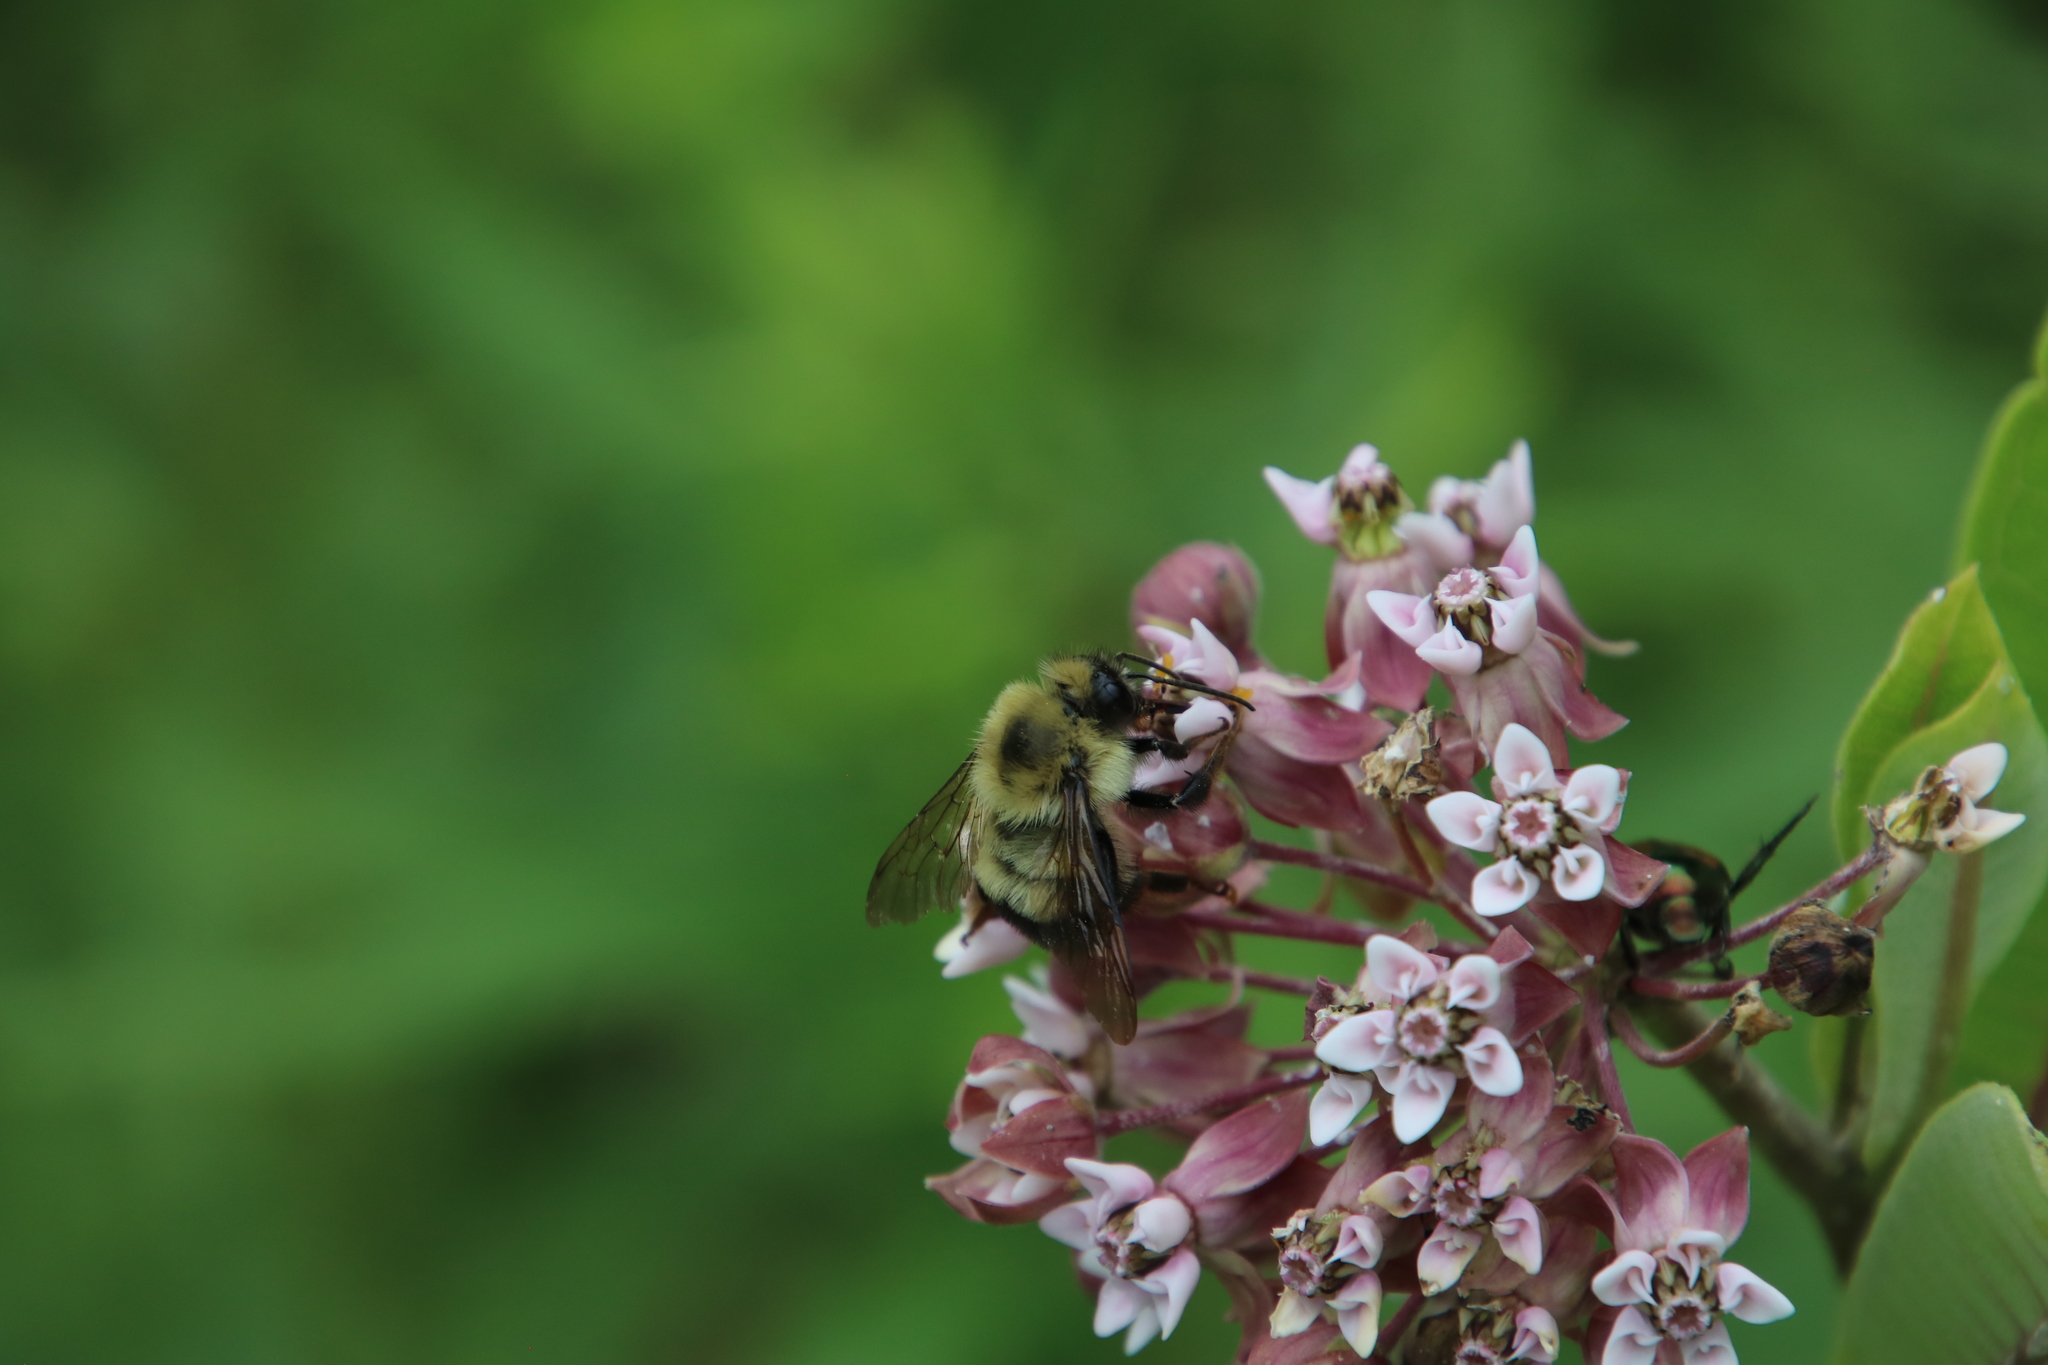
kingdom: Animalia
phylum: Arthropoda
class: Insecta
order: Hymenoptera
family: Apidae
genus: Bombus
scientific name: Bombus bimaculatus
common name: Two-spotted bumble bee
